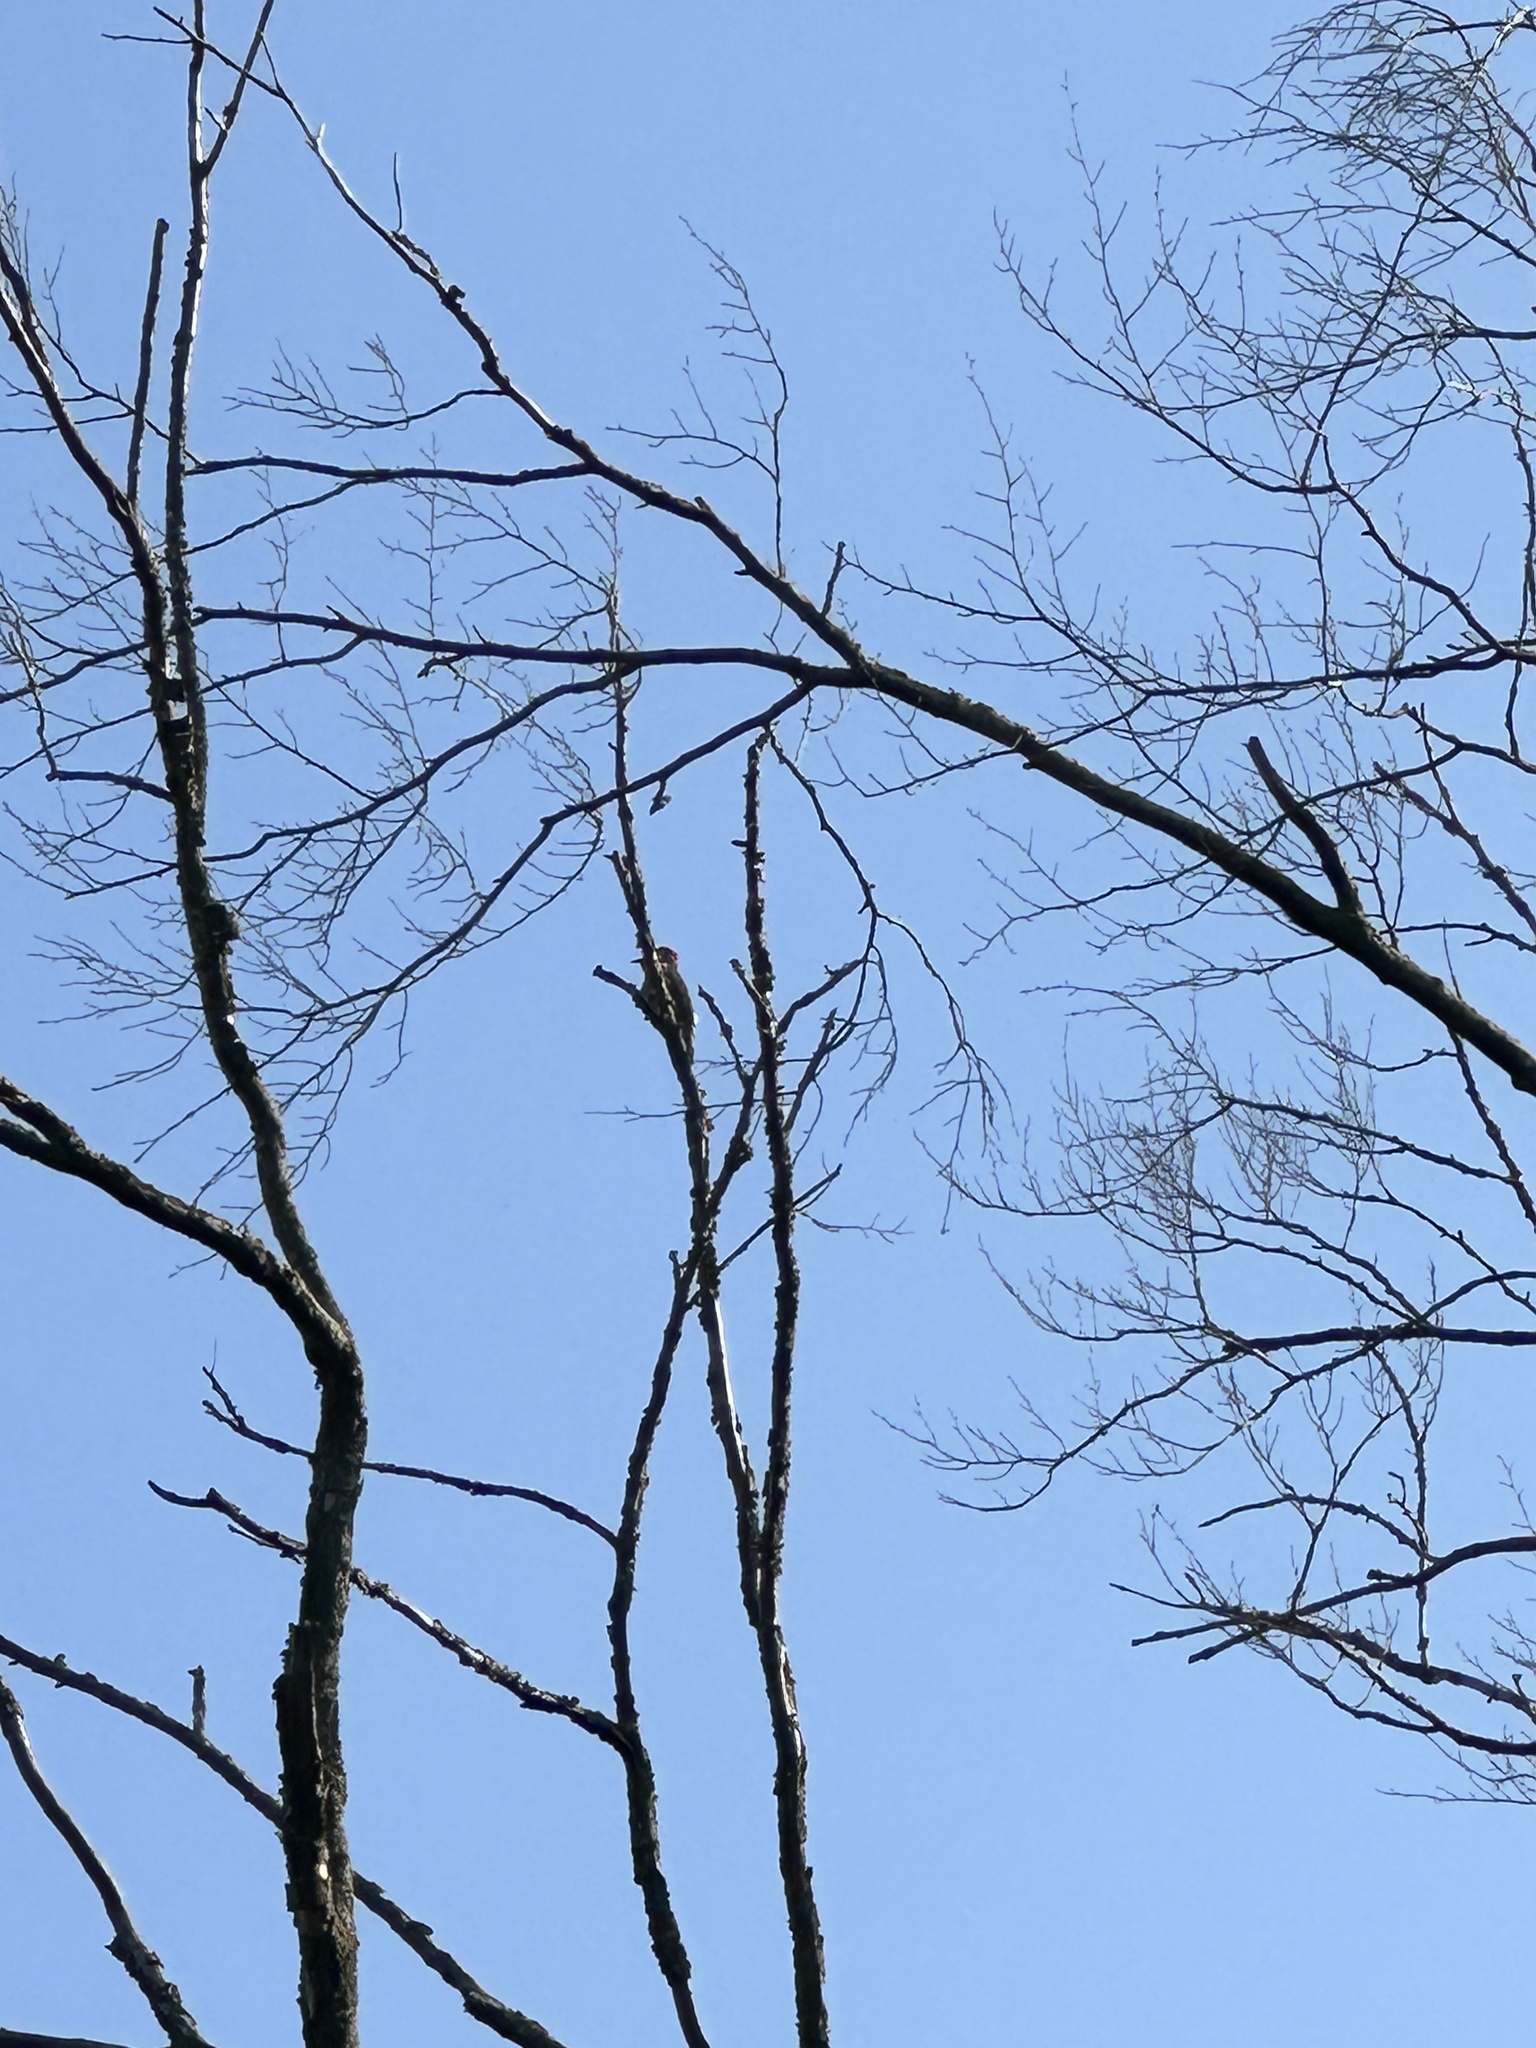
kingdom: Animalia
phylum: Chordata
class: Aves
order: Piciformes
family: Picidae
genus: Colaptes
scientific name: Colaptes auratus
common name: Northern flicker
